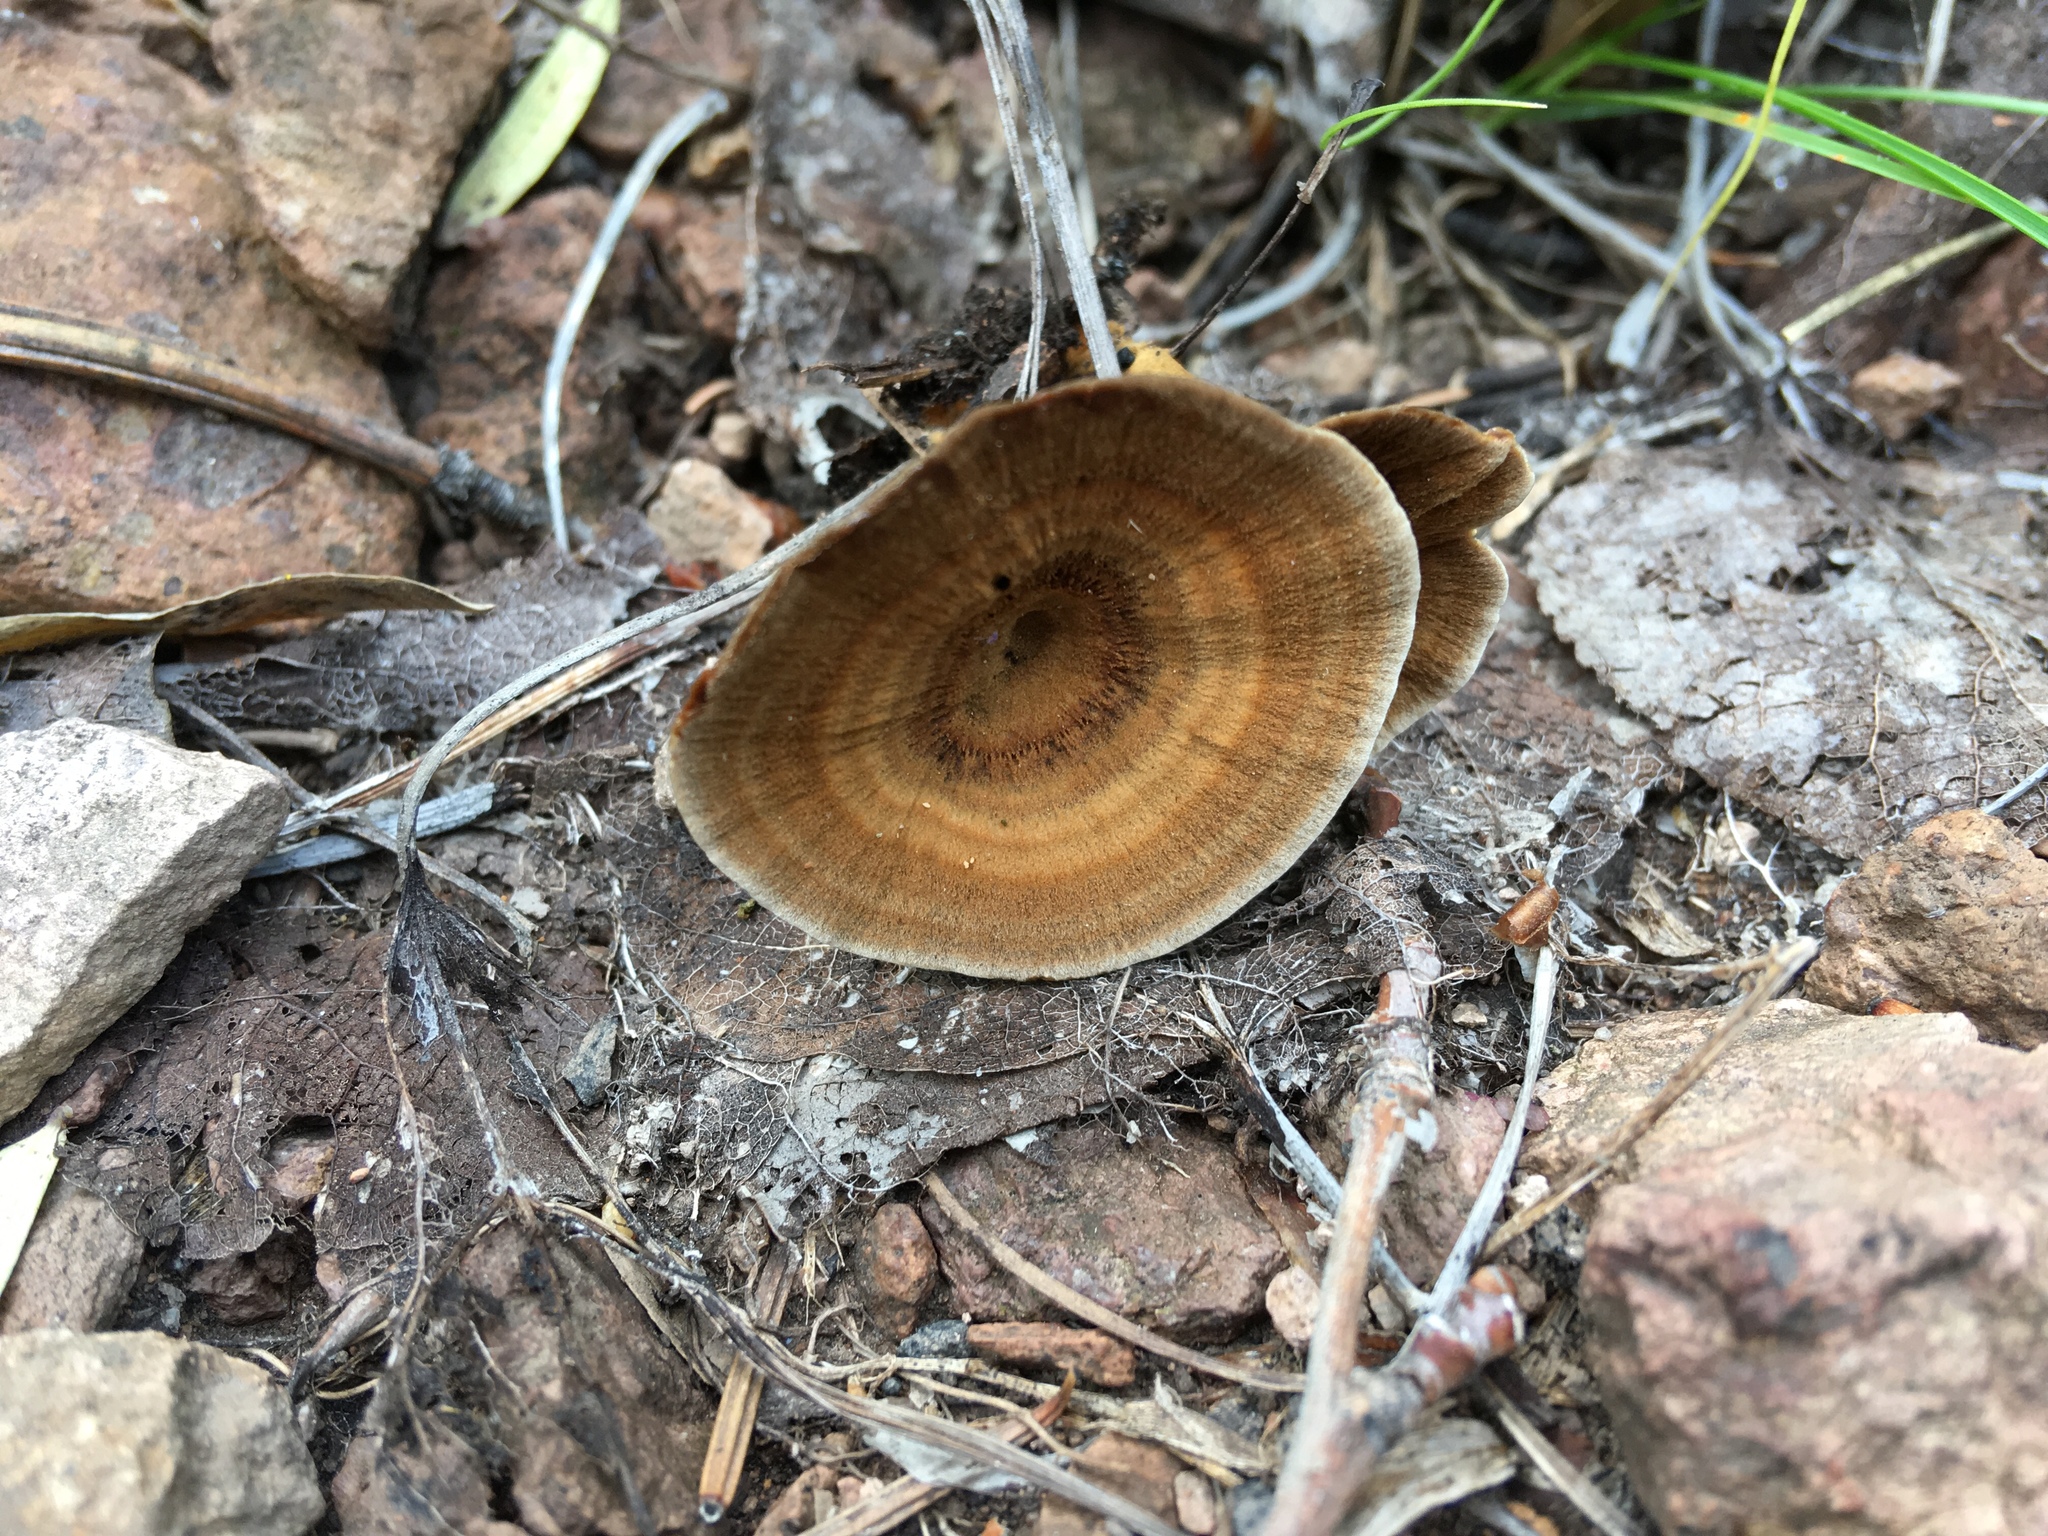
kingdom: Fungi
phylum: Basidiomycota
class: Agaricomycetes
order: Hymenochaetales
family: Hymenochaetaceae
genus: Coltricia
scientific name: Coltricia perennis
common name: Tiger's eye
